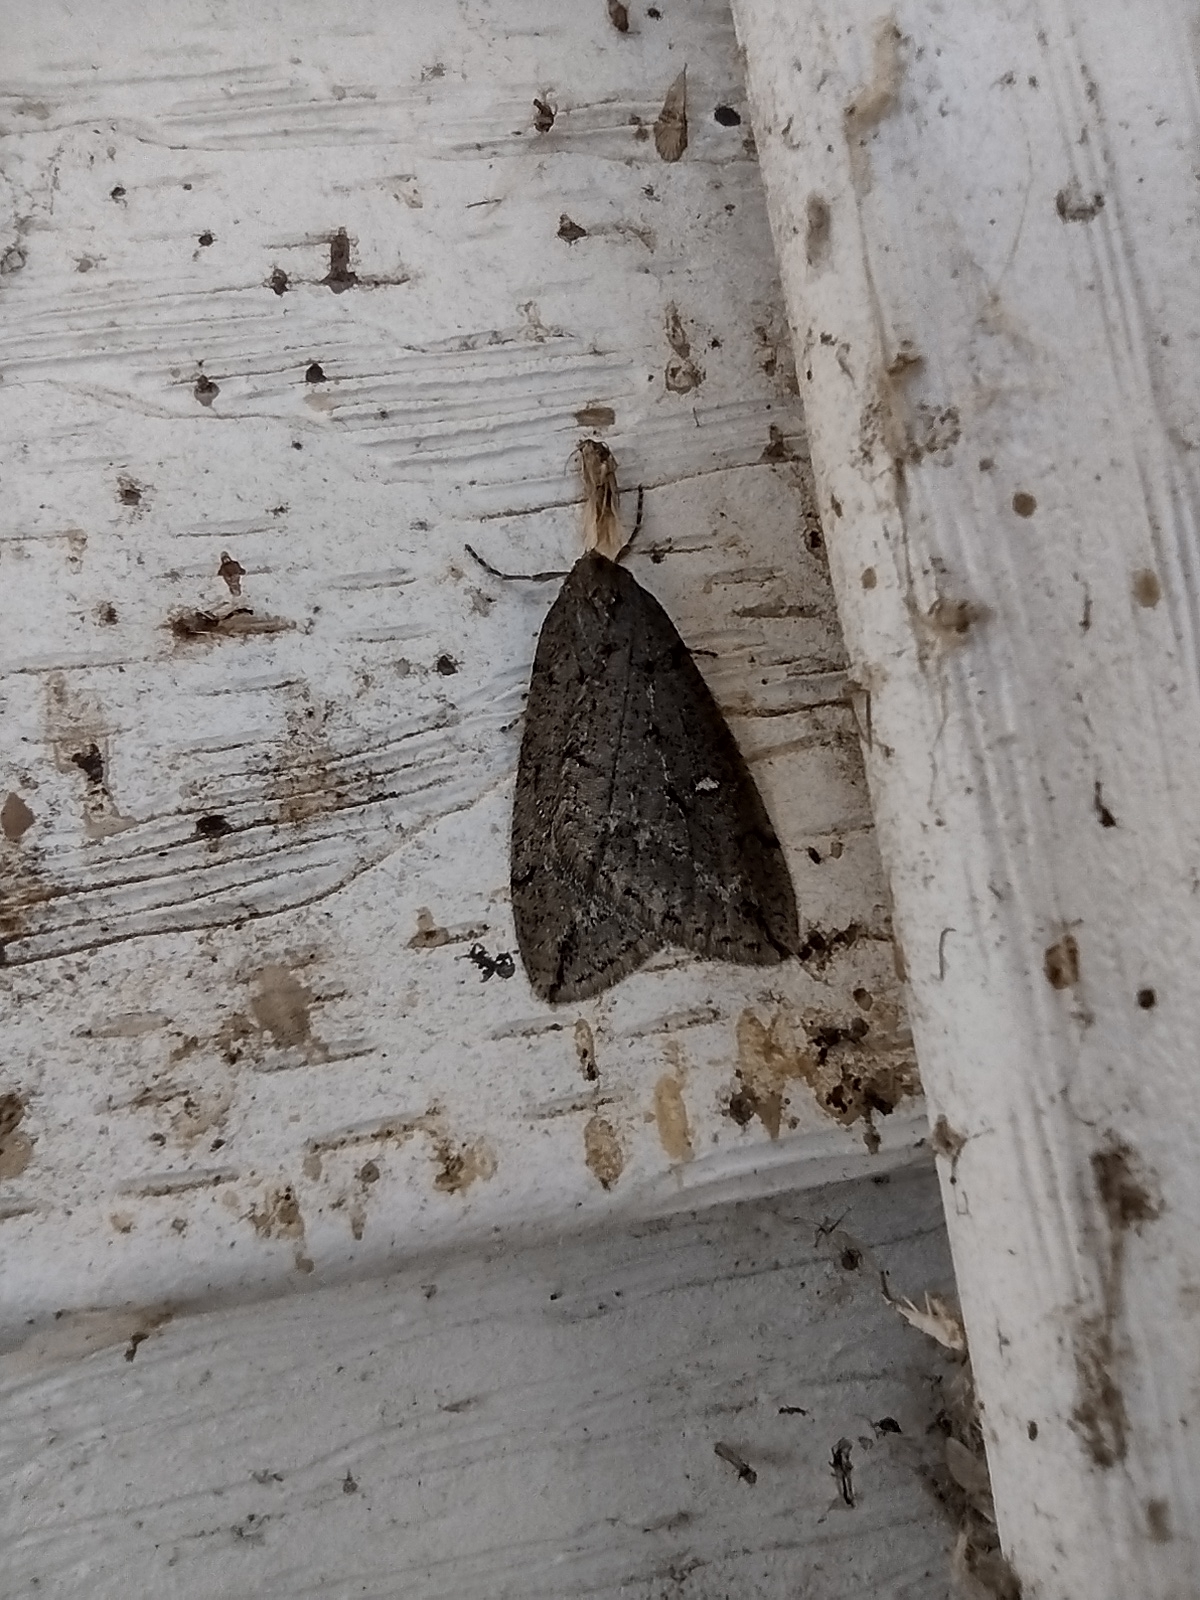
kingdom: Animalia
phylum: Arthropoda
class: Insecta
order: Lepidoptera
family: Geometridae
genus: Paleacrita
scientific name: Paleacrita merriccata
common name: White-spotted canker worm
